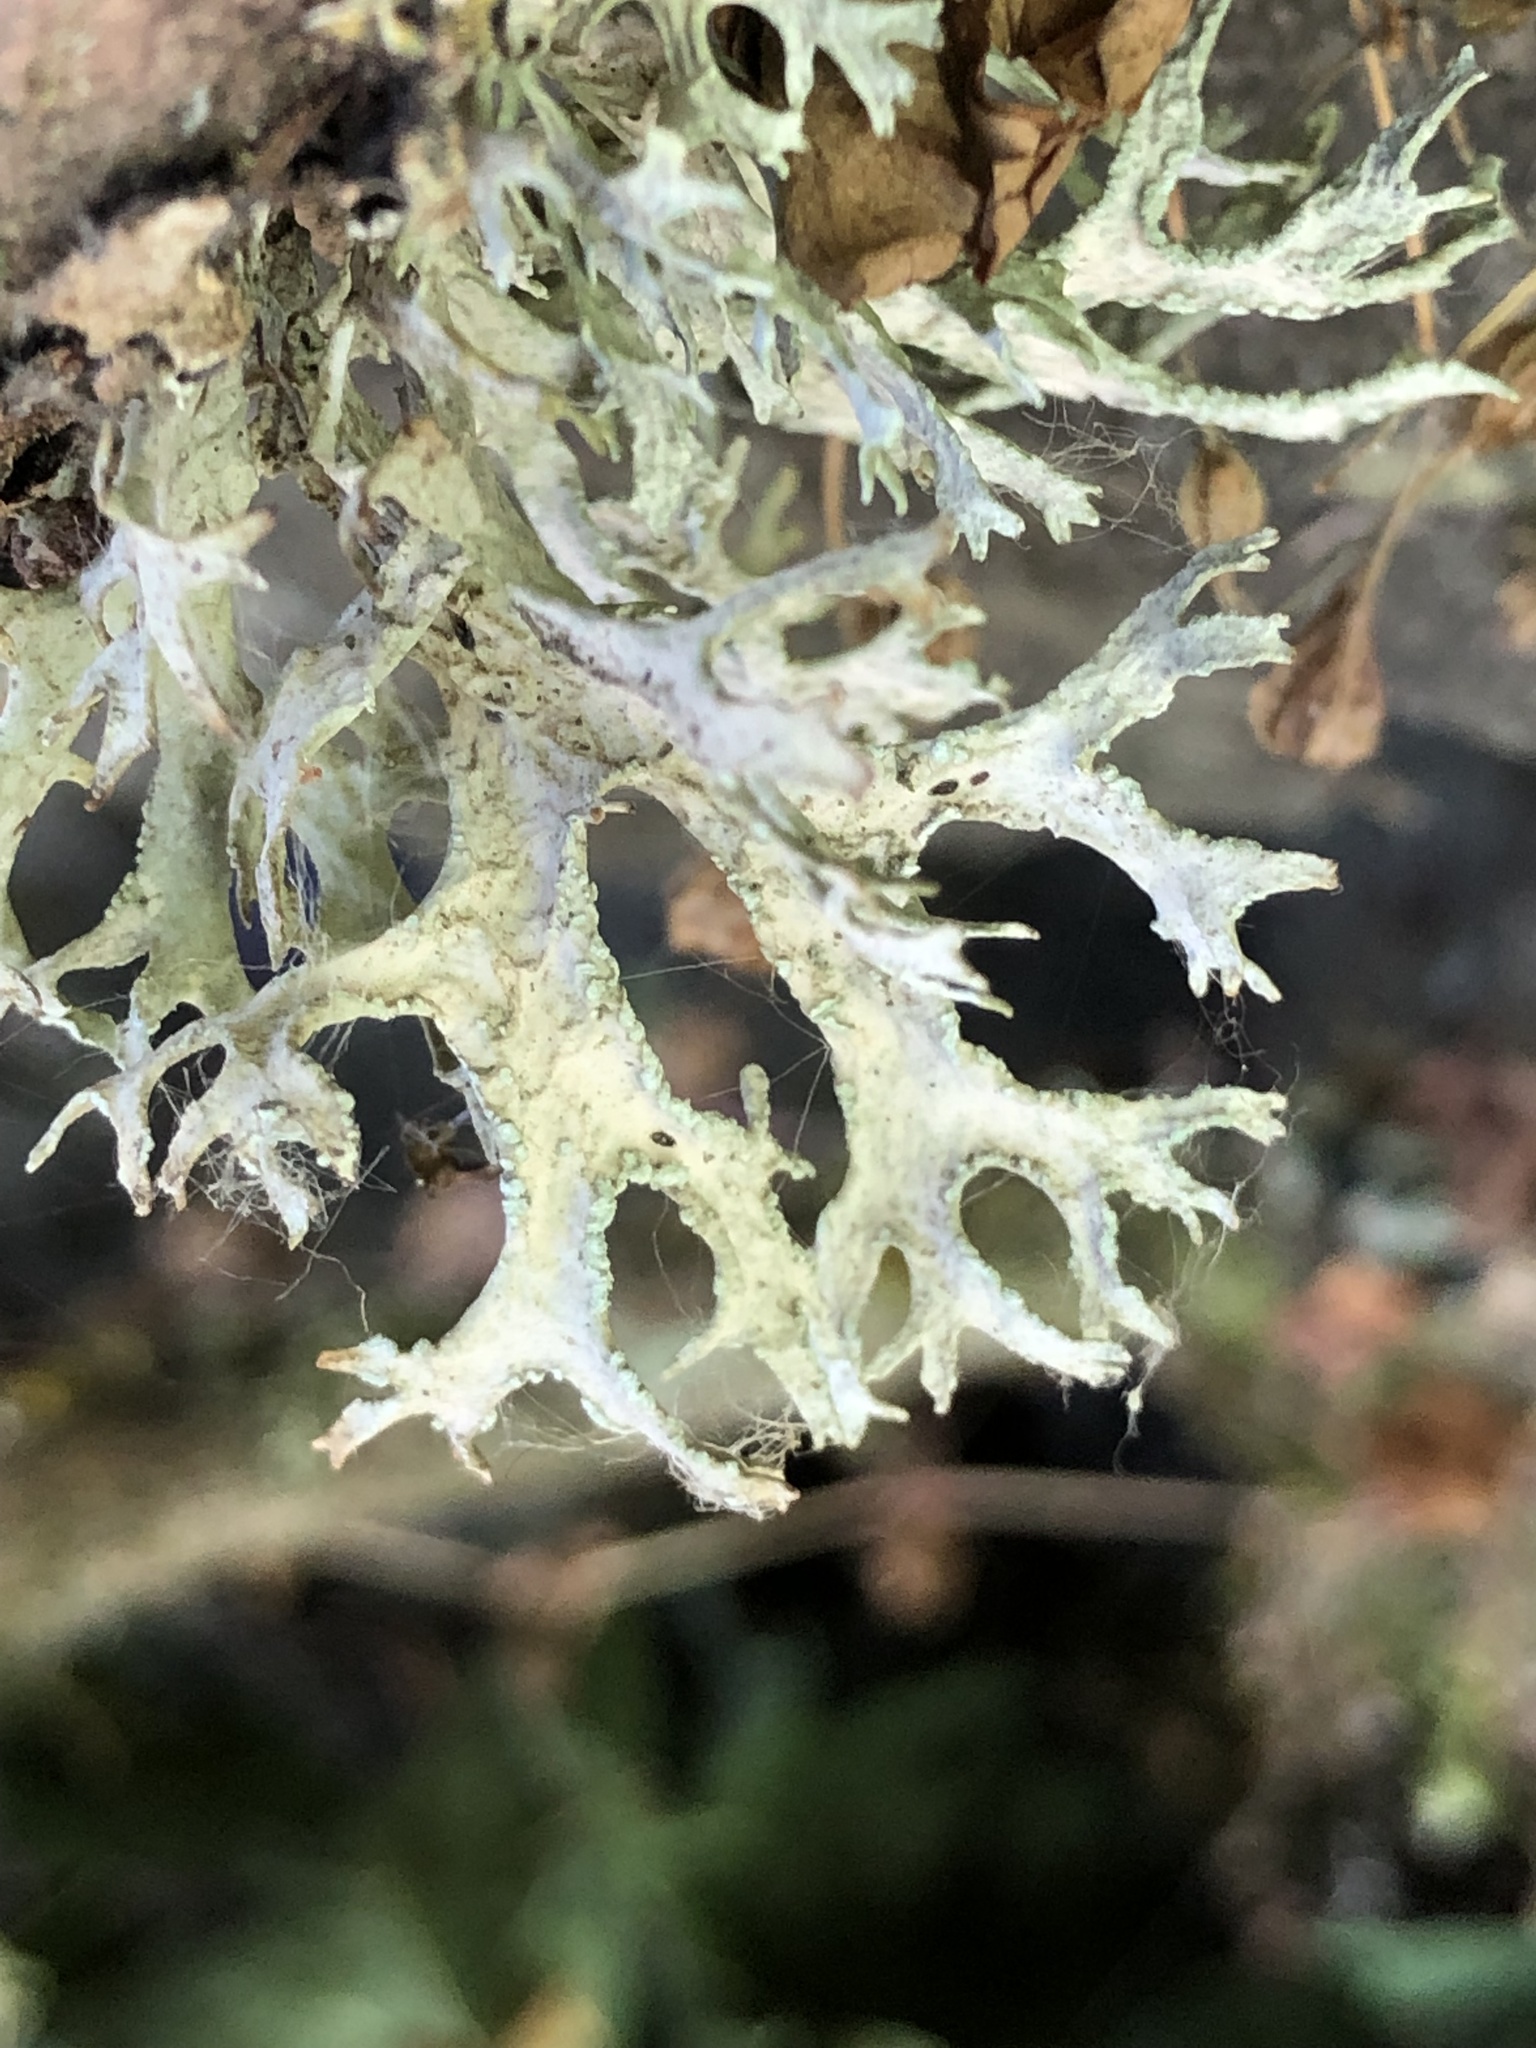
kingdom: Fungi
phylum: Ascomycota
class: Lecanoromycetes
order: Lecanorales
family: Parmeliaceae
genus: Evernia
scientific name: Evernia prunastri
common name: Oak moss
